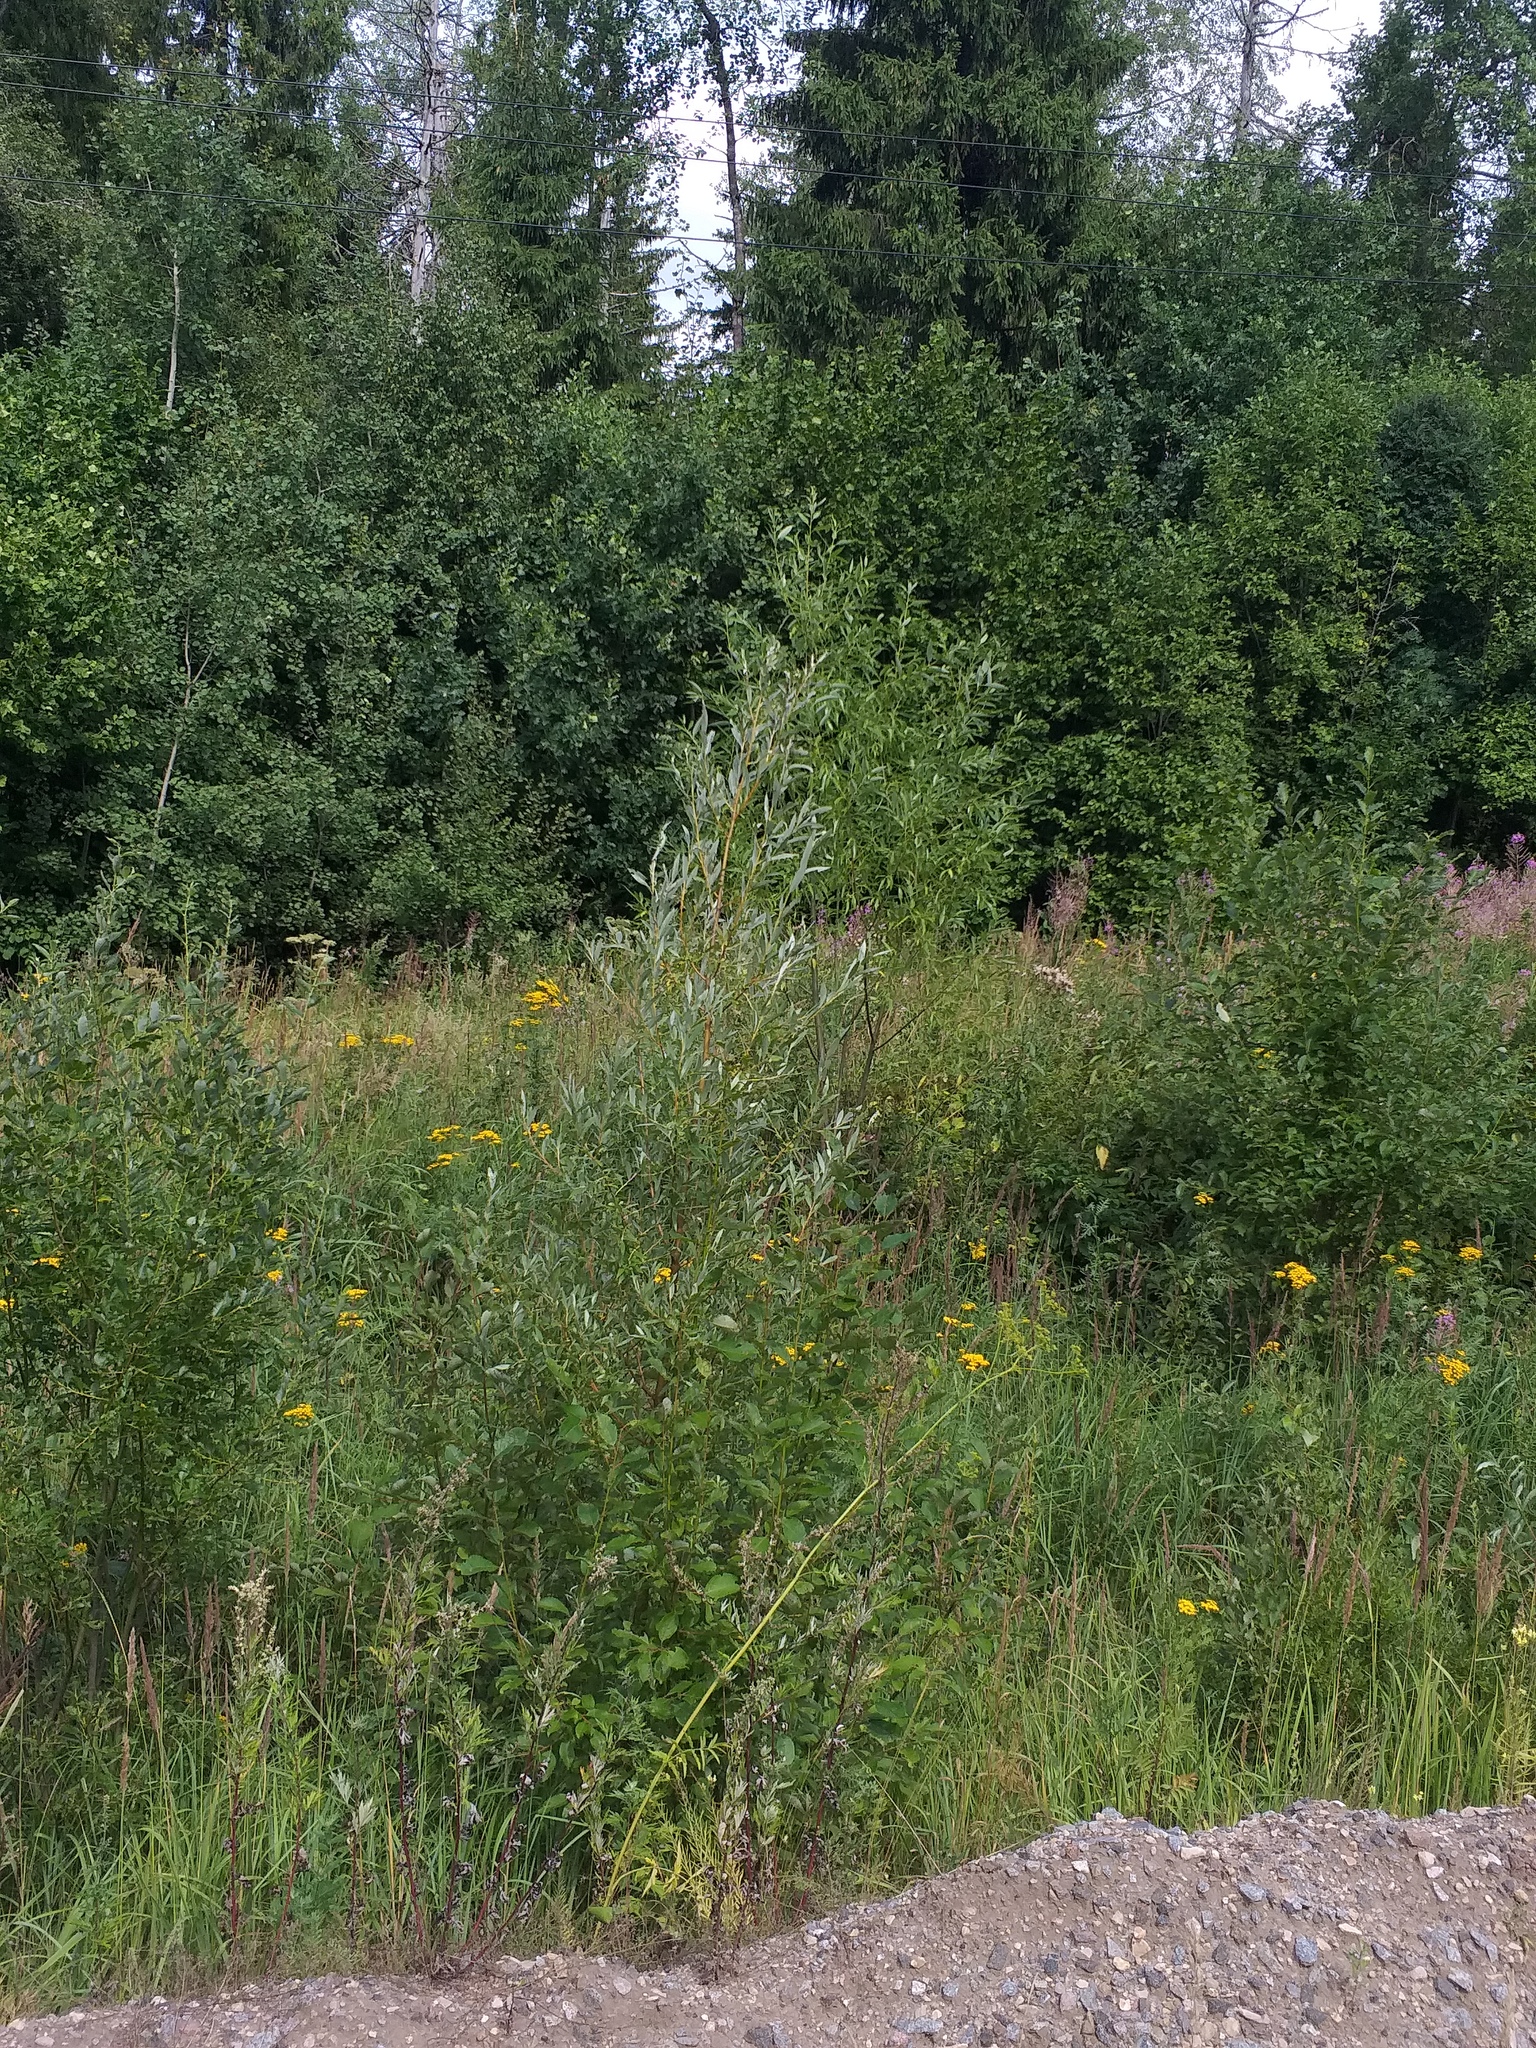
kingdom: Plantae
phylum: Tracheophyta
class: Magnoliopsida
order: Malpighiales
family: Salicaceae
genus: Salix
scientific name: Salix alba
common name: White willow
